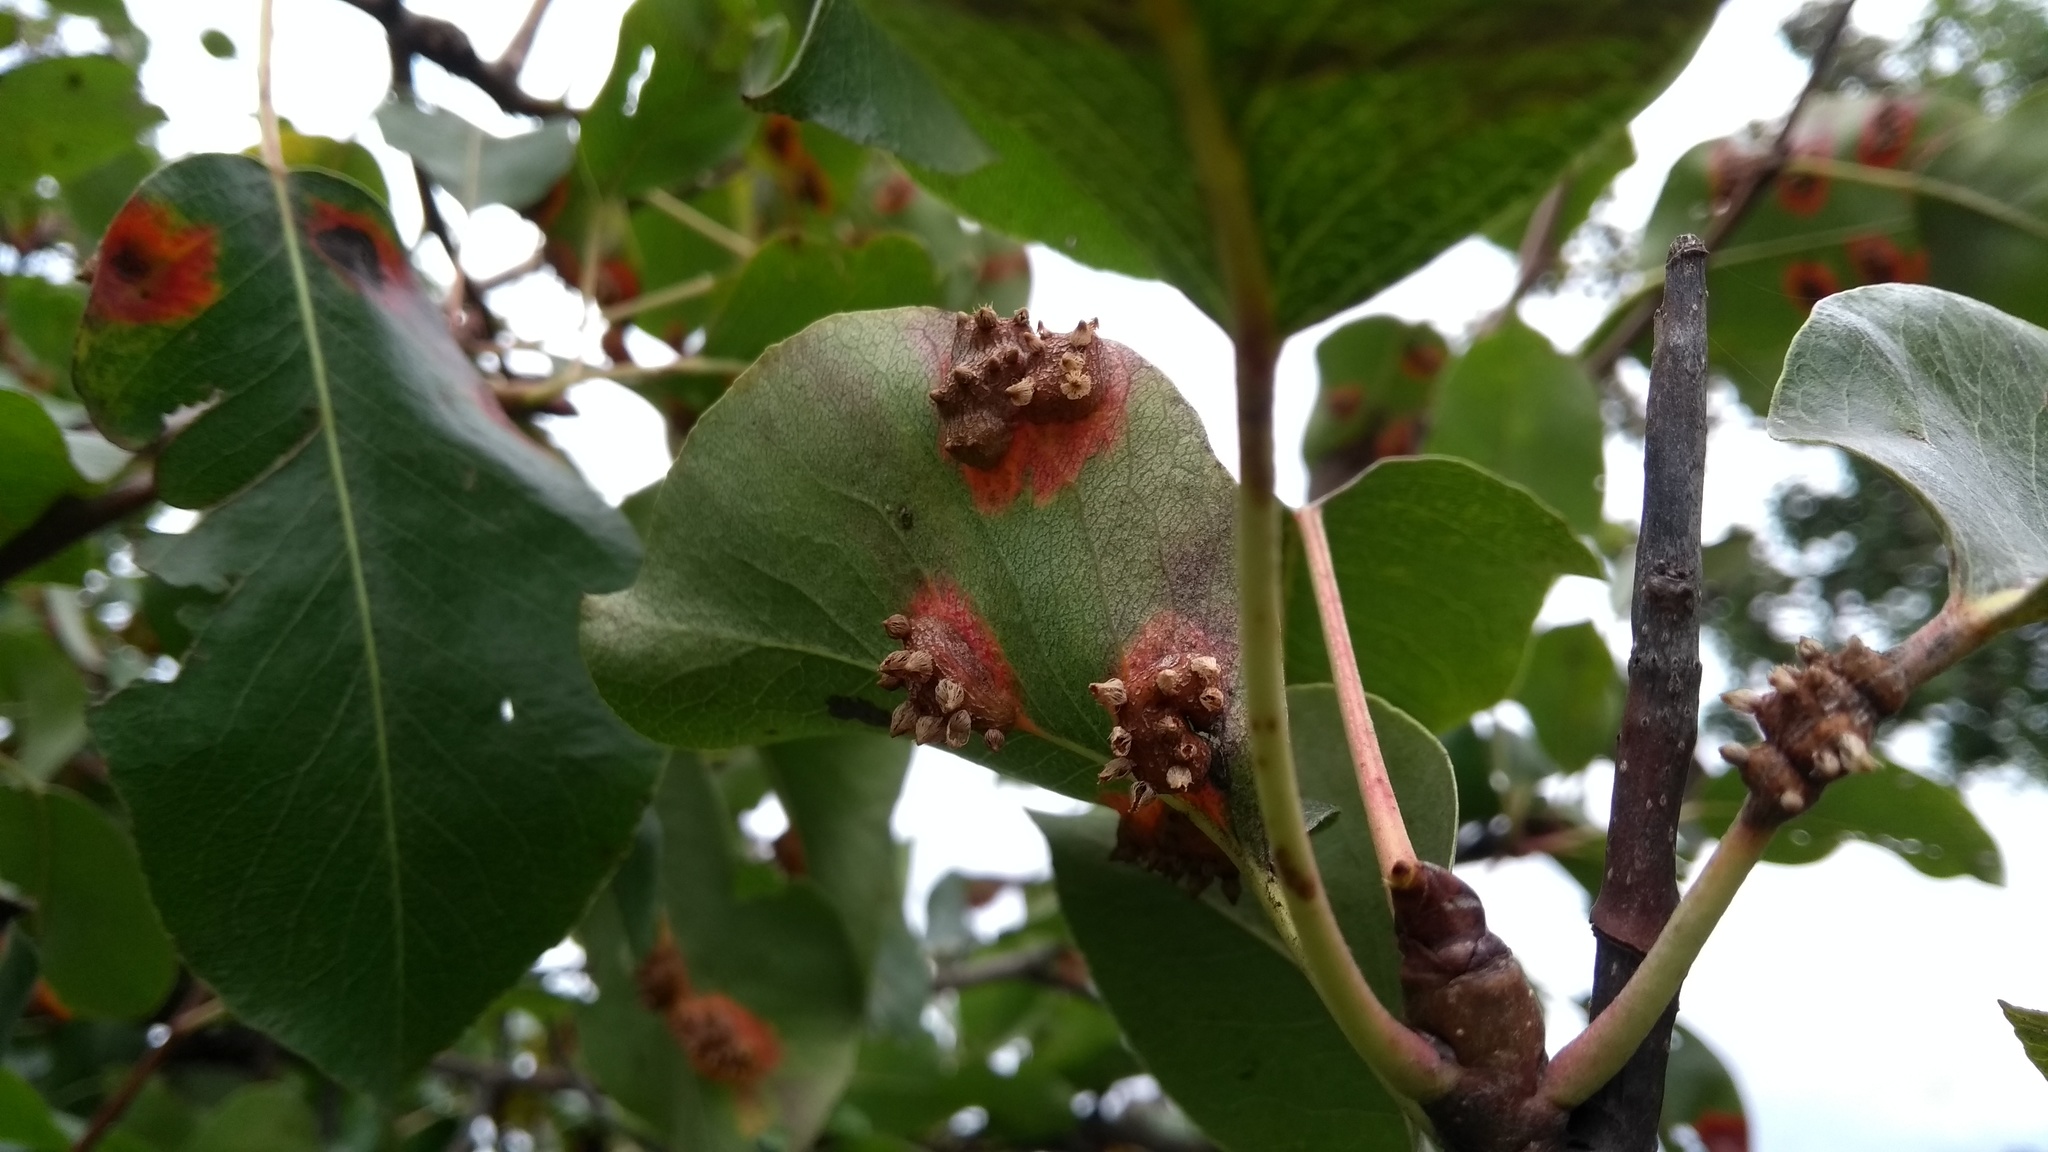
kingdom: Fungi
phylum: Basidiomycota
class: Pucciniomycetes
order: Pucciniales
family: Gymnosporangiaceae
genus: Gymnosporangium
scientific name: Gymnosporangium sabinae
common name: Pear trellis rust fungus
